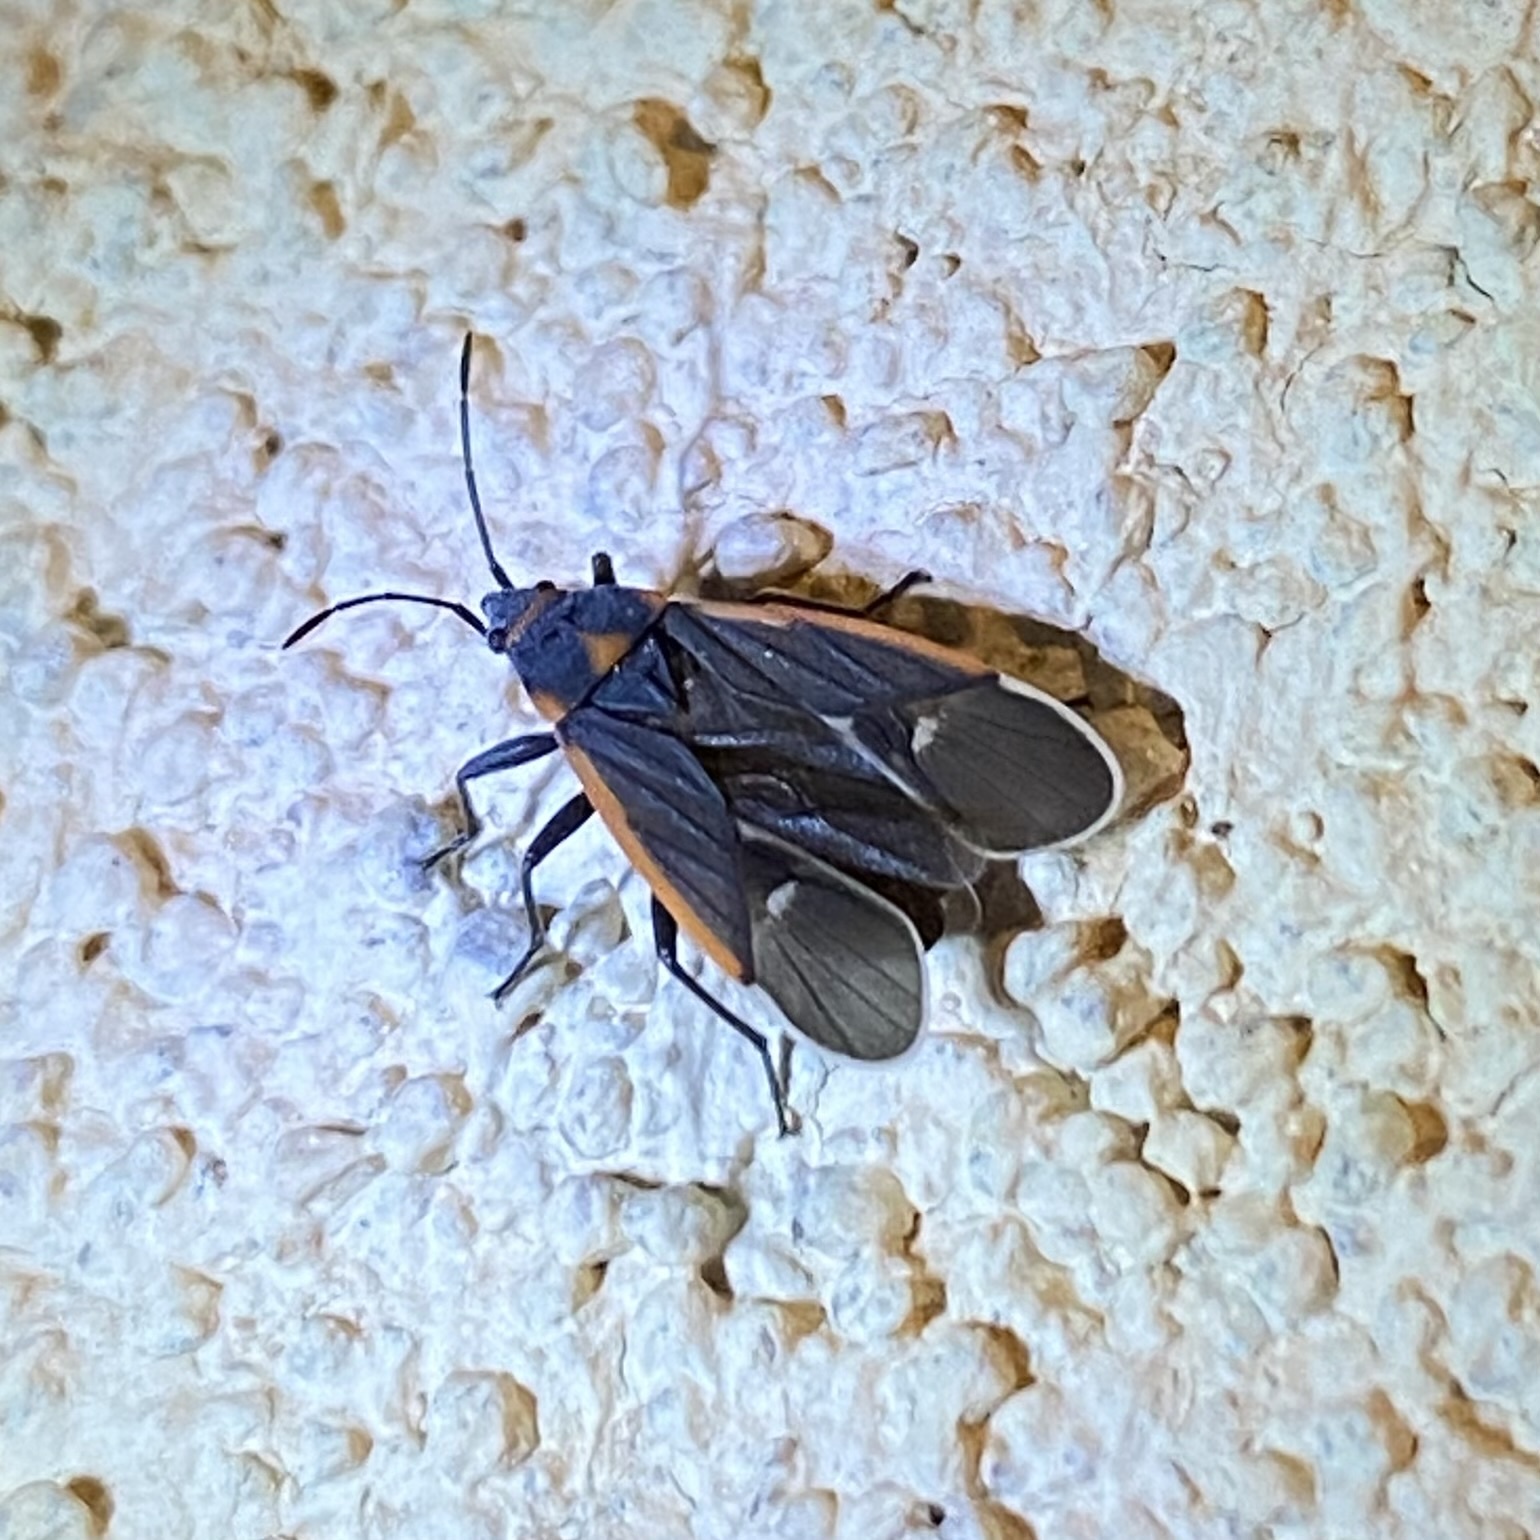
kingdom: Animalia
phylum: Arthropoda
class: Insecta
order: Hemiptera
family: Lygaeidae
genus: Melacoryphus
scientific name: Melacoryphus lateralis
